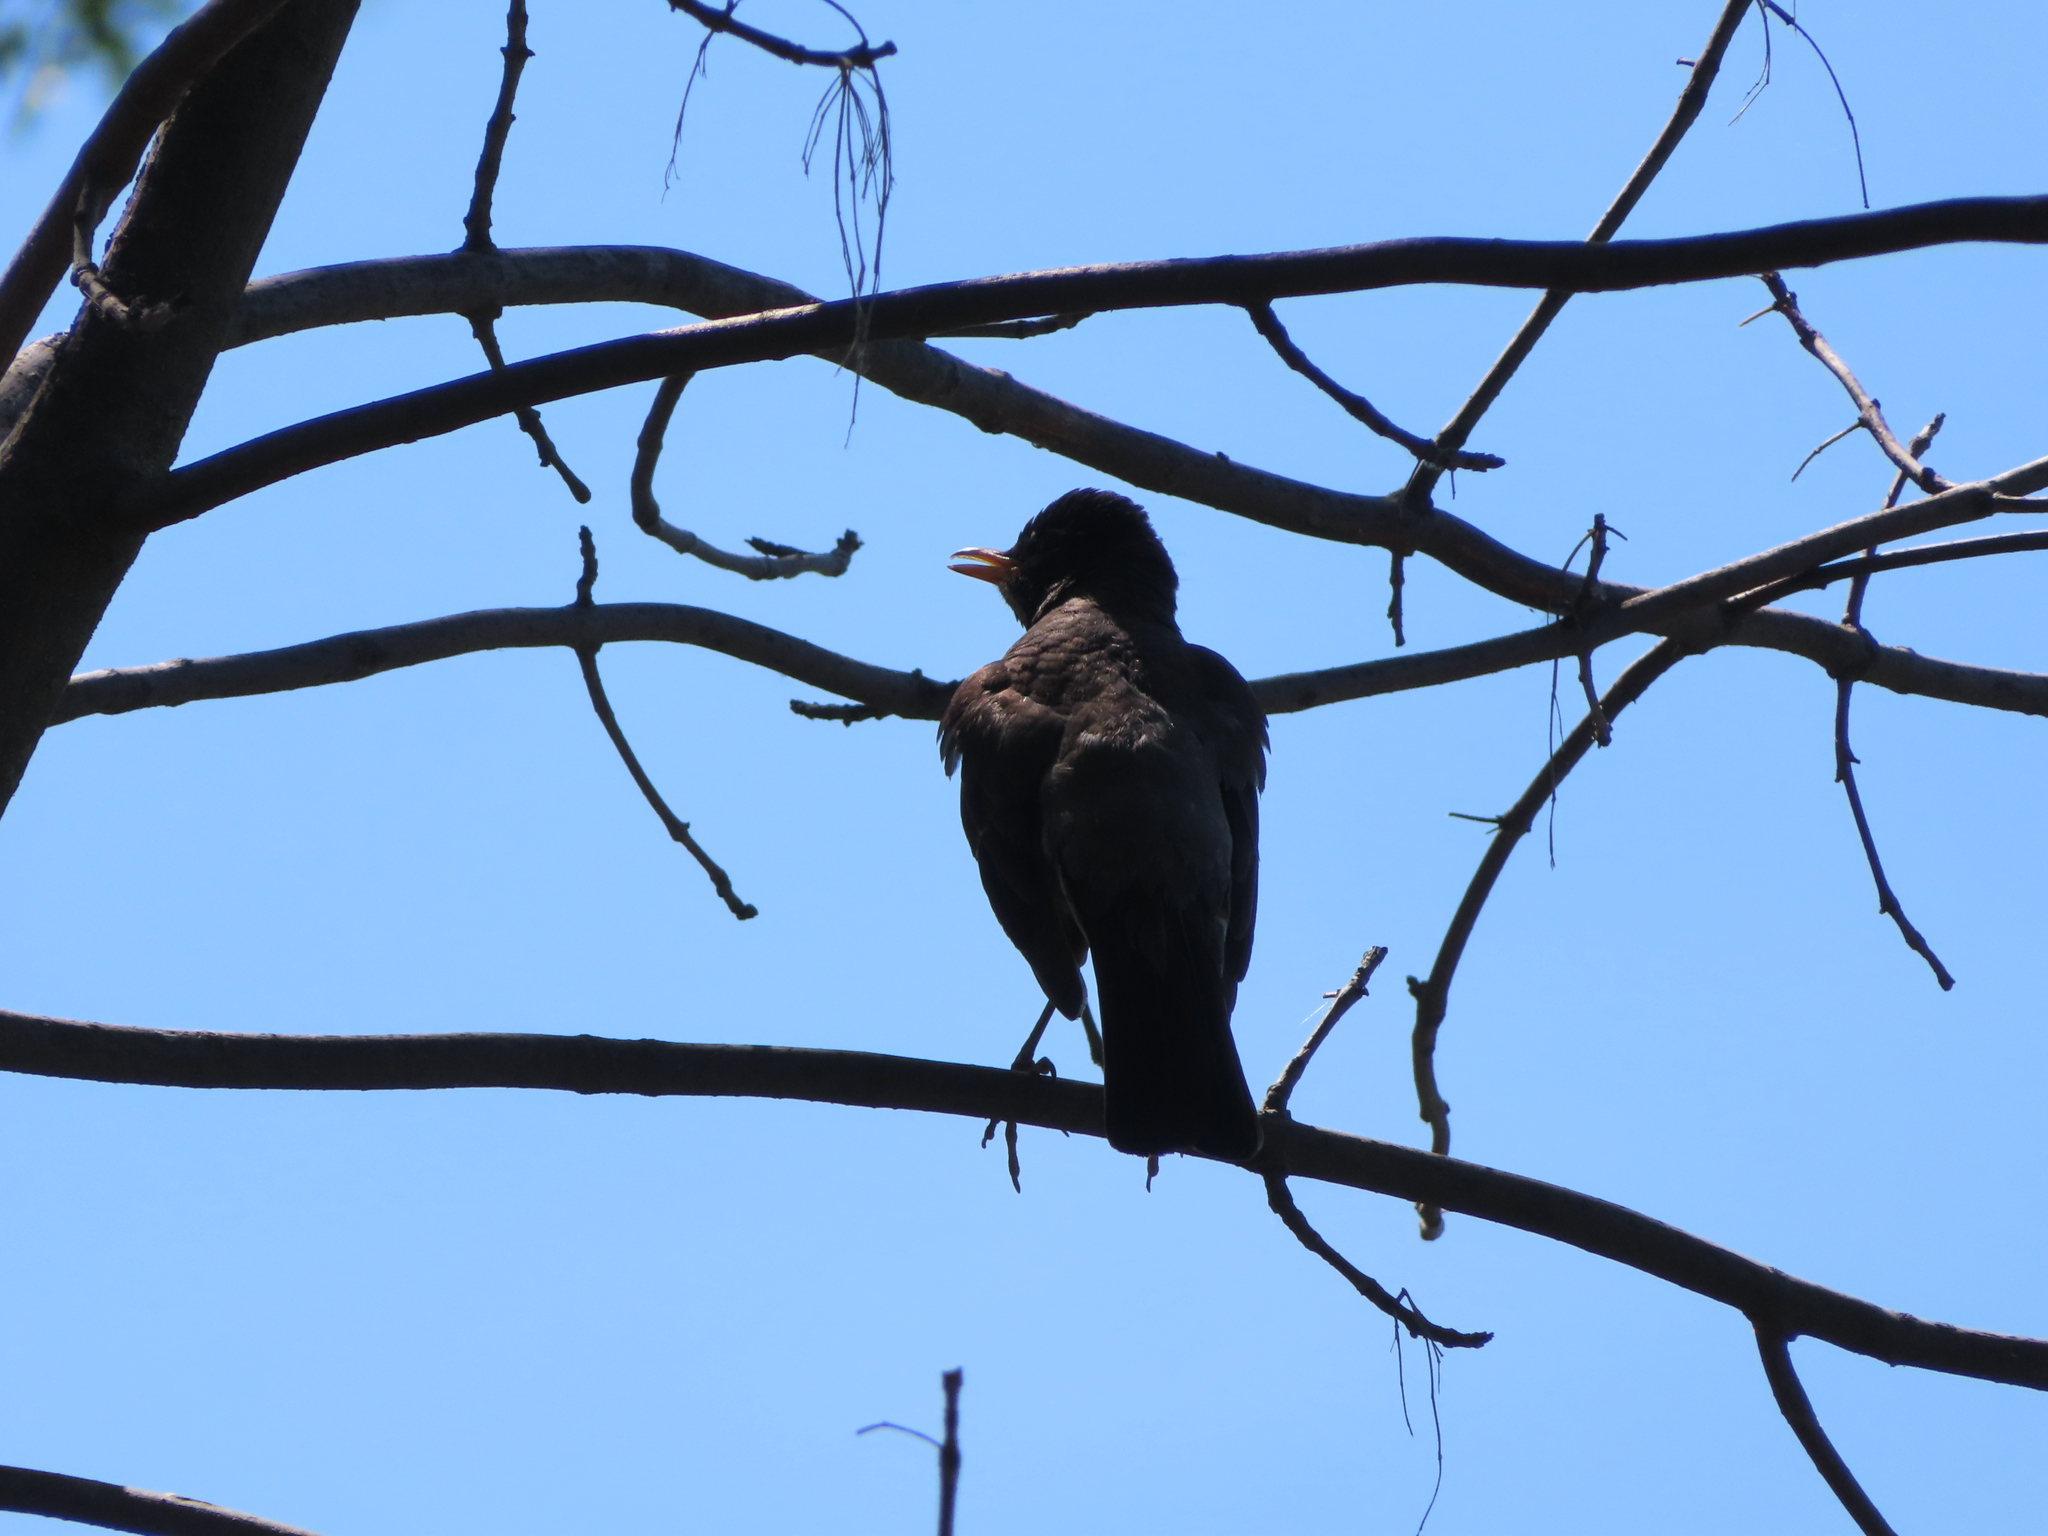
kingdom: Animalia
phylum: Chordata
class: Aves
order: Passeriformes
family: Turdidae
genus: Turdus
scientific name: Turdus migratorius
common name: American robin
